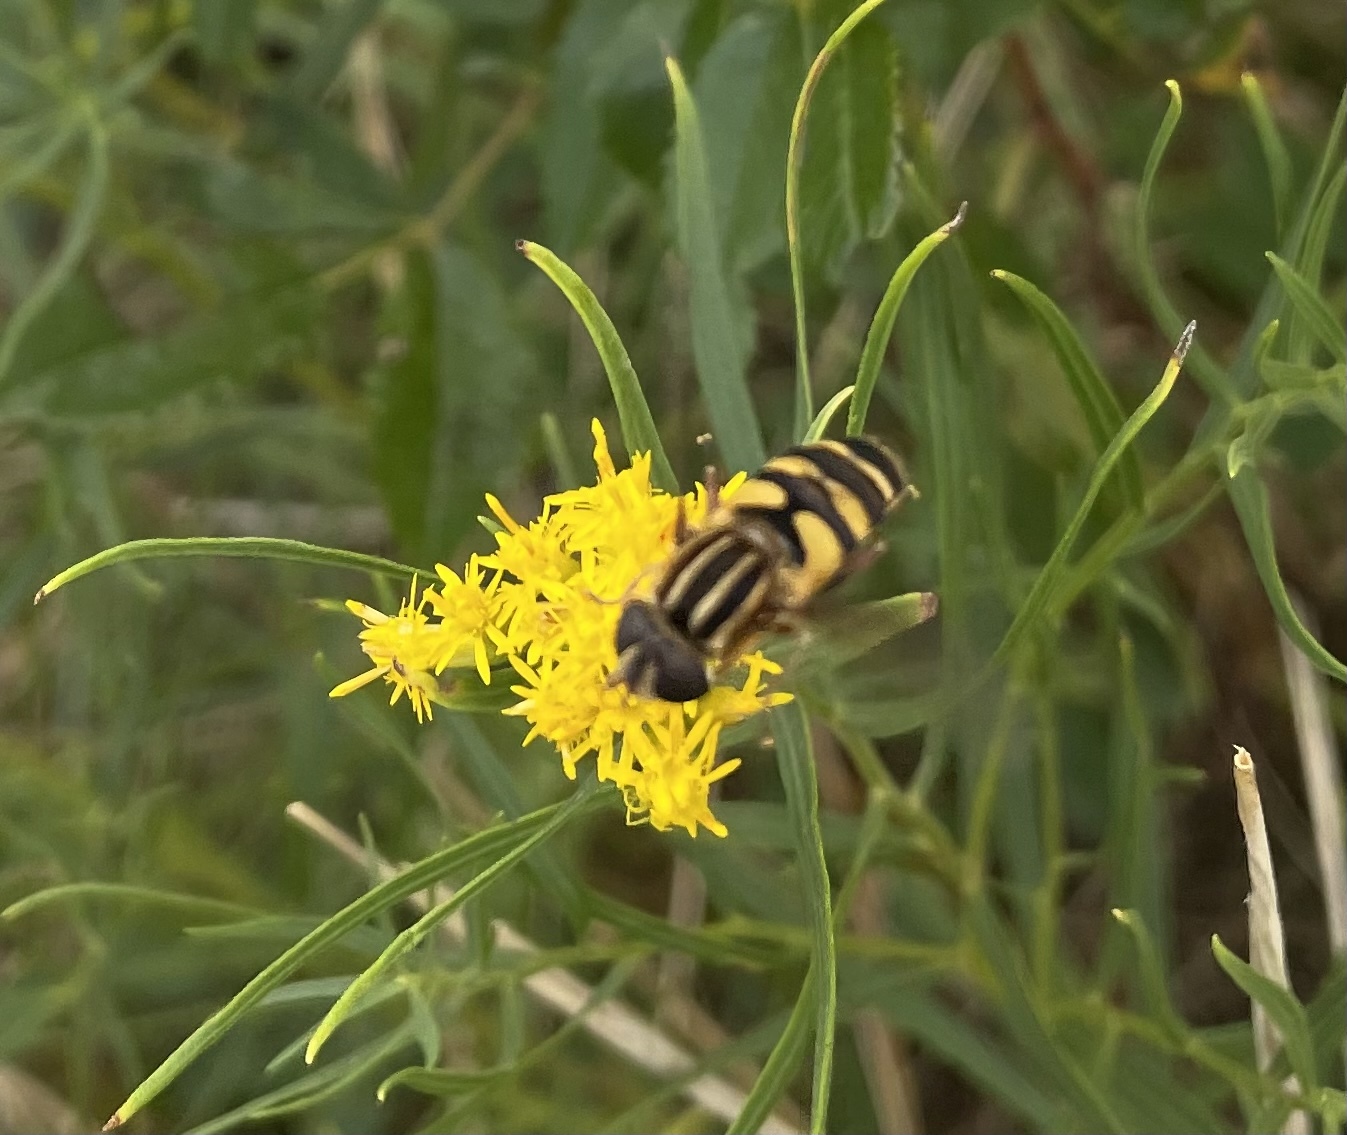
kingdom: Animalia
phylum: Arthropoda
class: Insecta
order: Diptera
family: Syrphidae
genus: Helophilus
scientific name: Helophilus fasciatus
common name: Narrow-headed marsh fly
